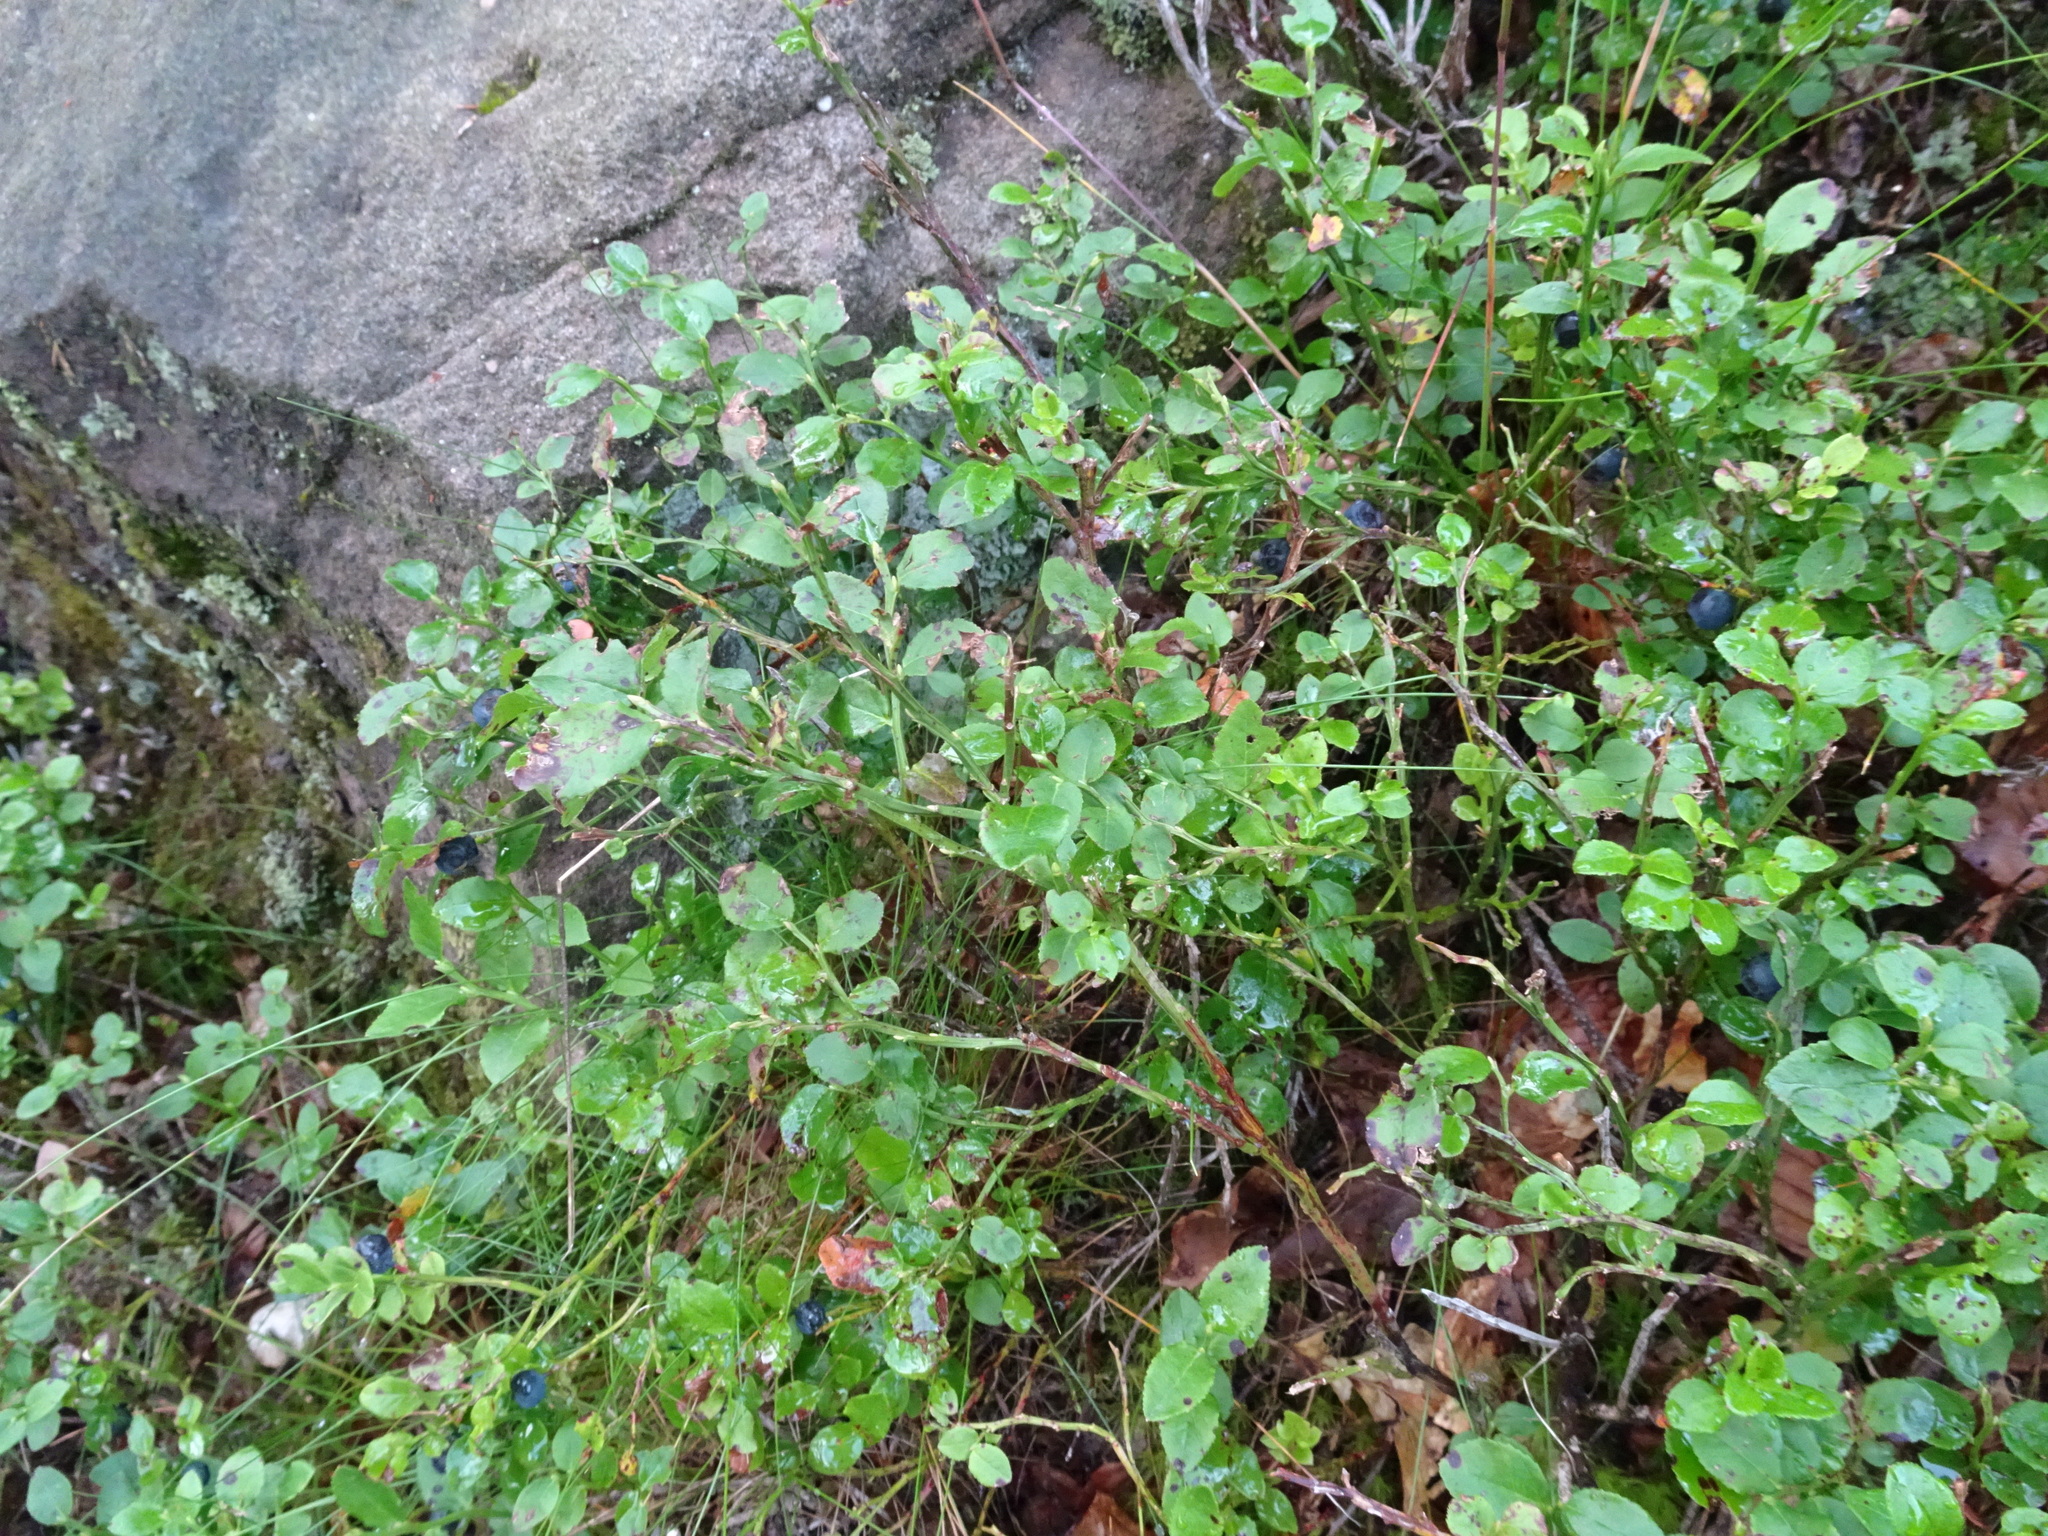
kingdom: Plantae
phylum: Tracheophyta
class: Magnoliopsida
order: Ericales
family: Ericaceae
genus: Vaccinium
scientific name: Vaccinium myrtillus
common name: Bilberry
